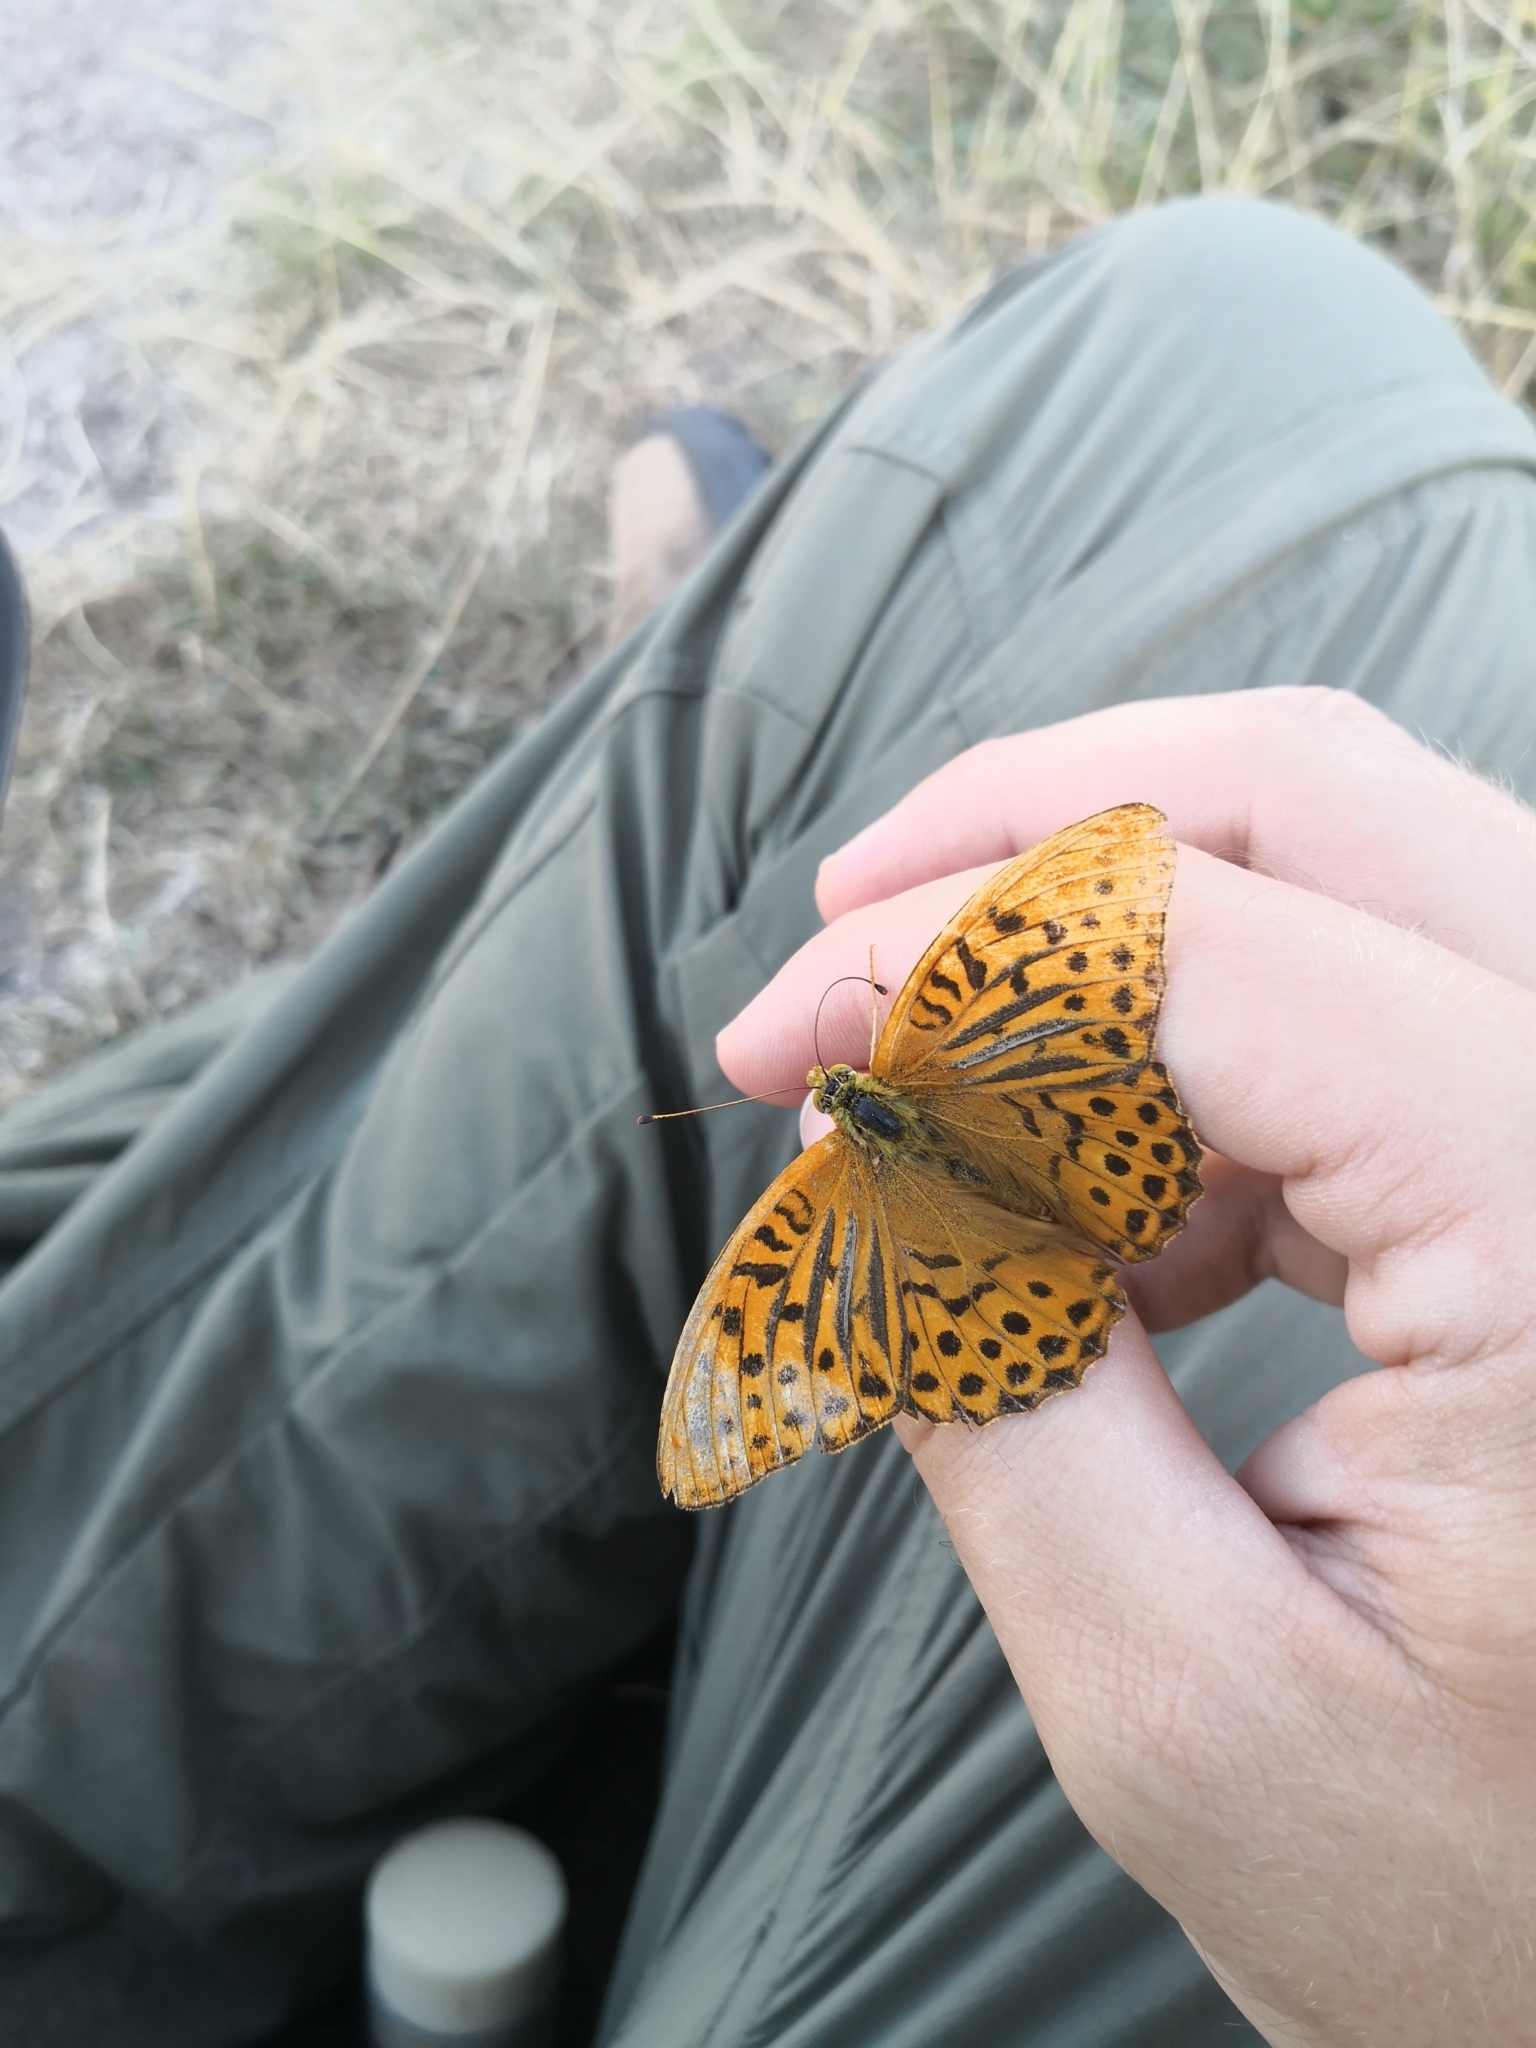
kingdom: Animalia
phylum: Arthropoda
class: Insecta
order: Lepidoptera
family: Nymphalidae
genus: Argynnis
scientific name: Argynnis paphia
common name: Silver-washed fritillary
